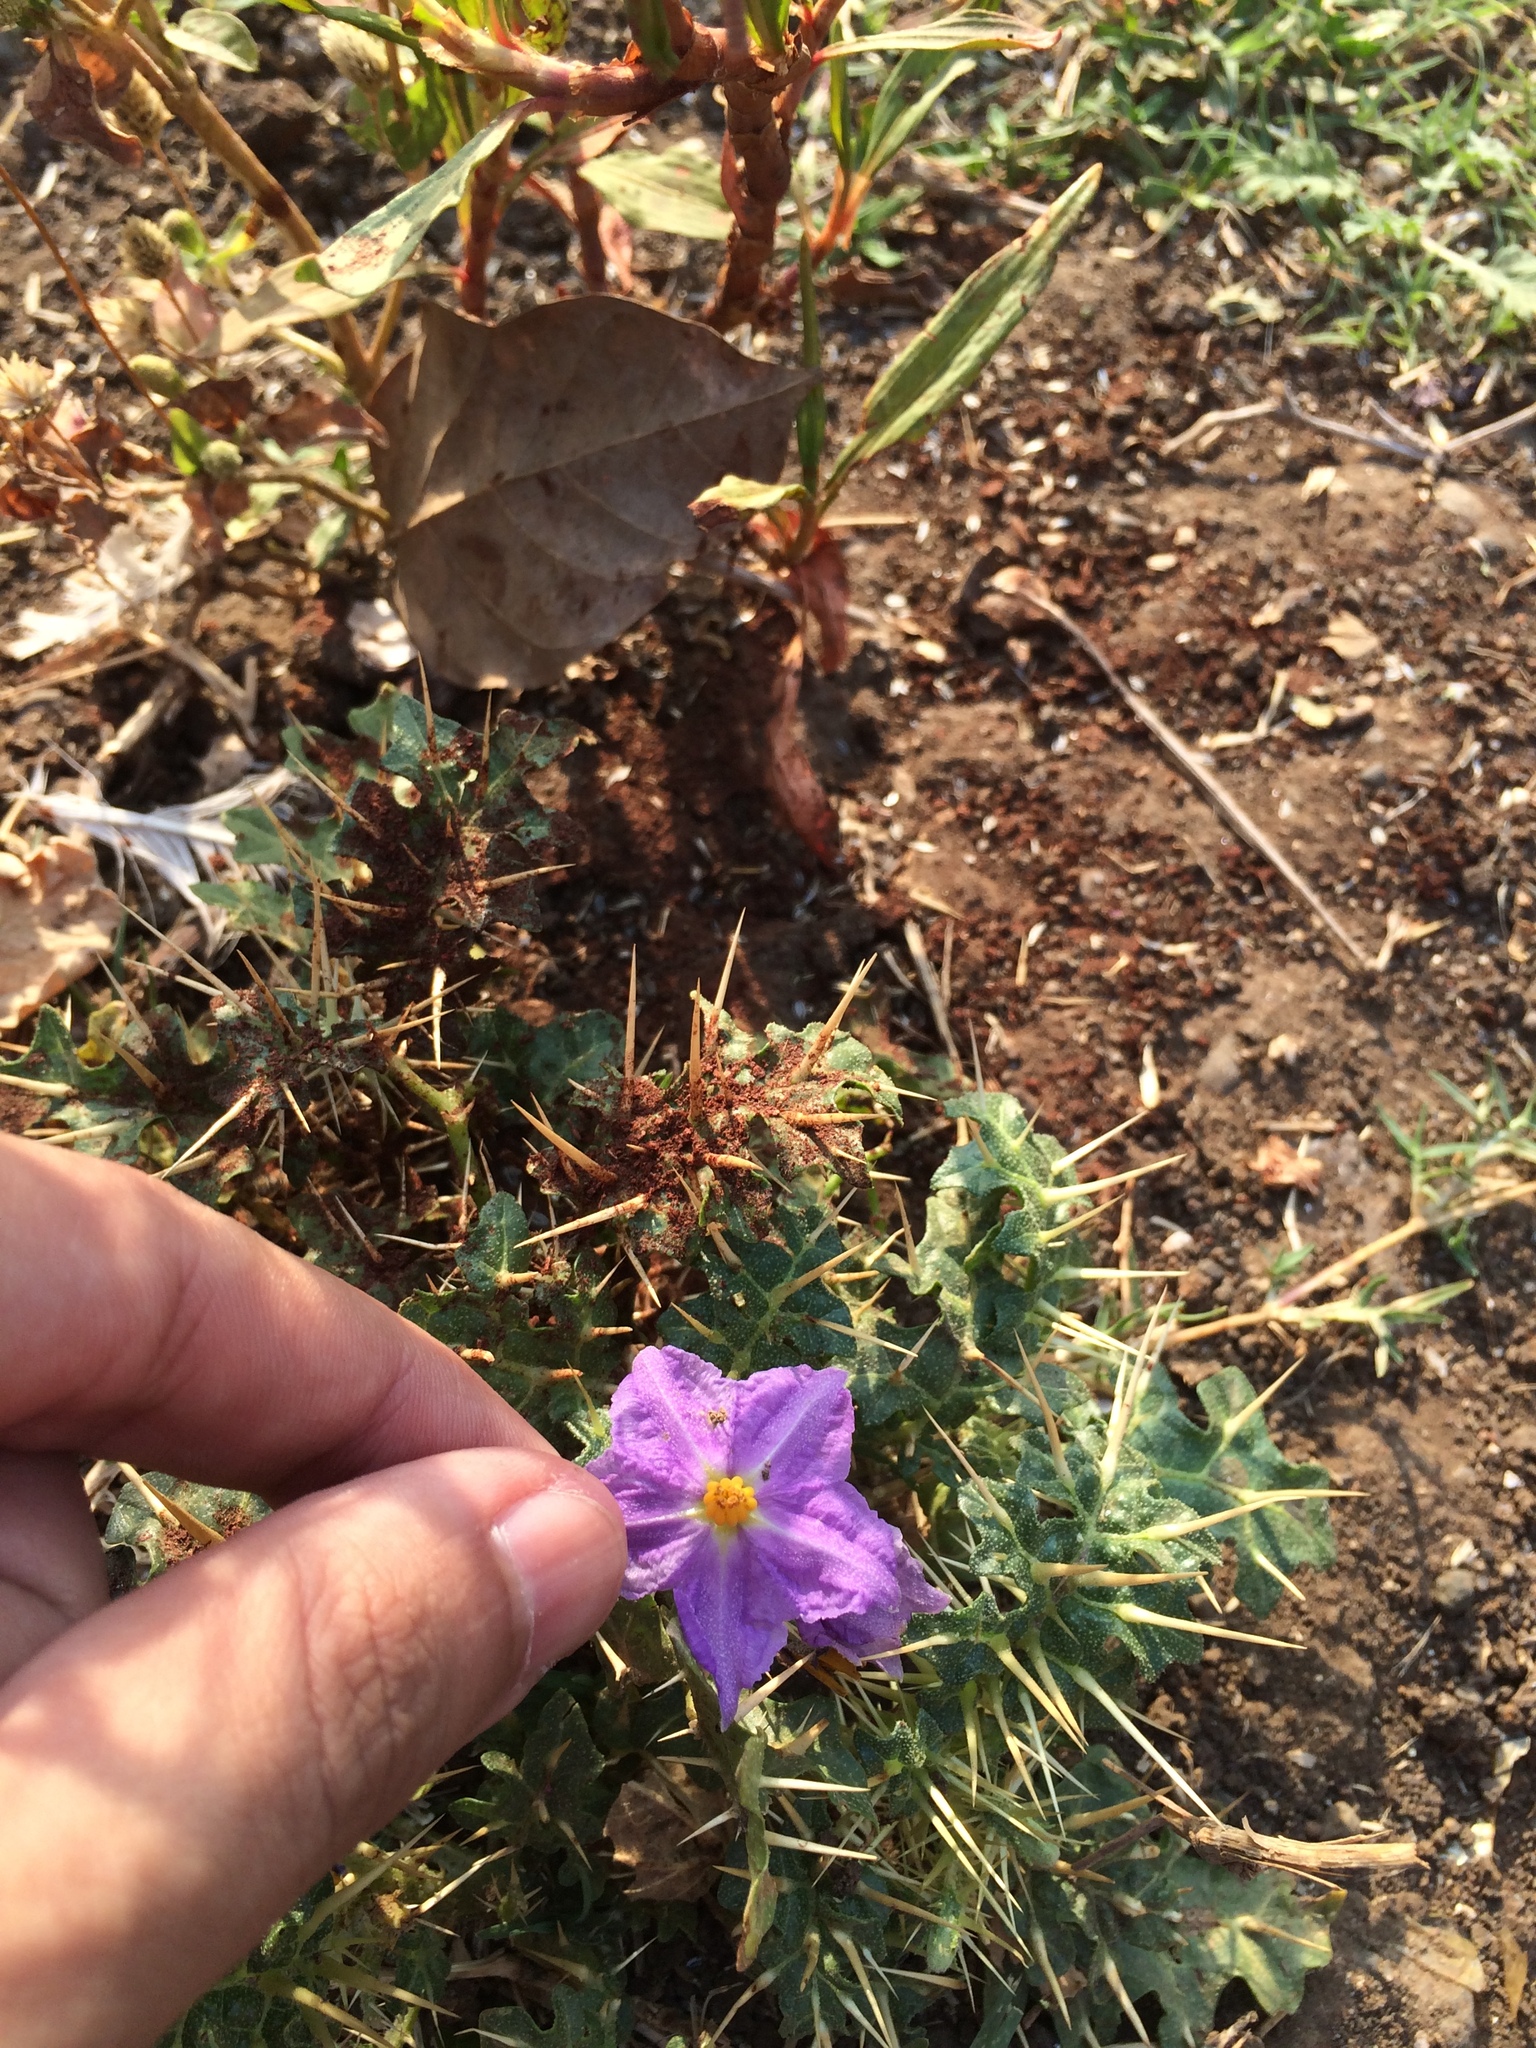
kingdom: Plantae
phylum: Tracheophyta
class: Magnoliopsida
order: Solanales
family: Solanaceae
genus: Solanum
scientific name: Solanum virginianum
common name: Surattense nightshade
